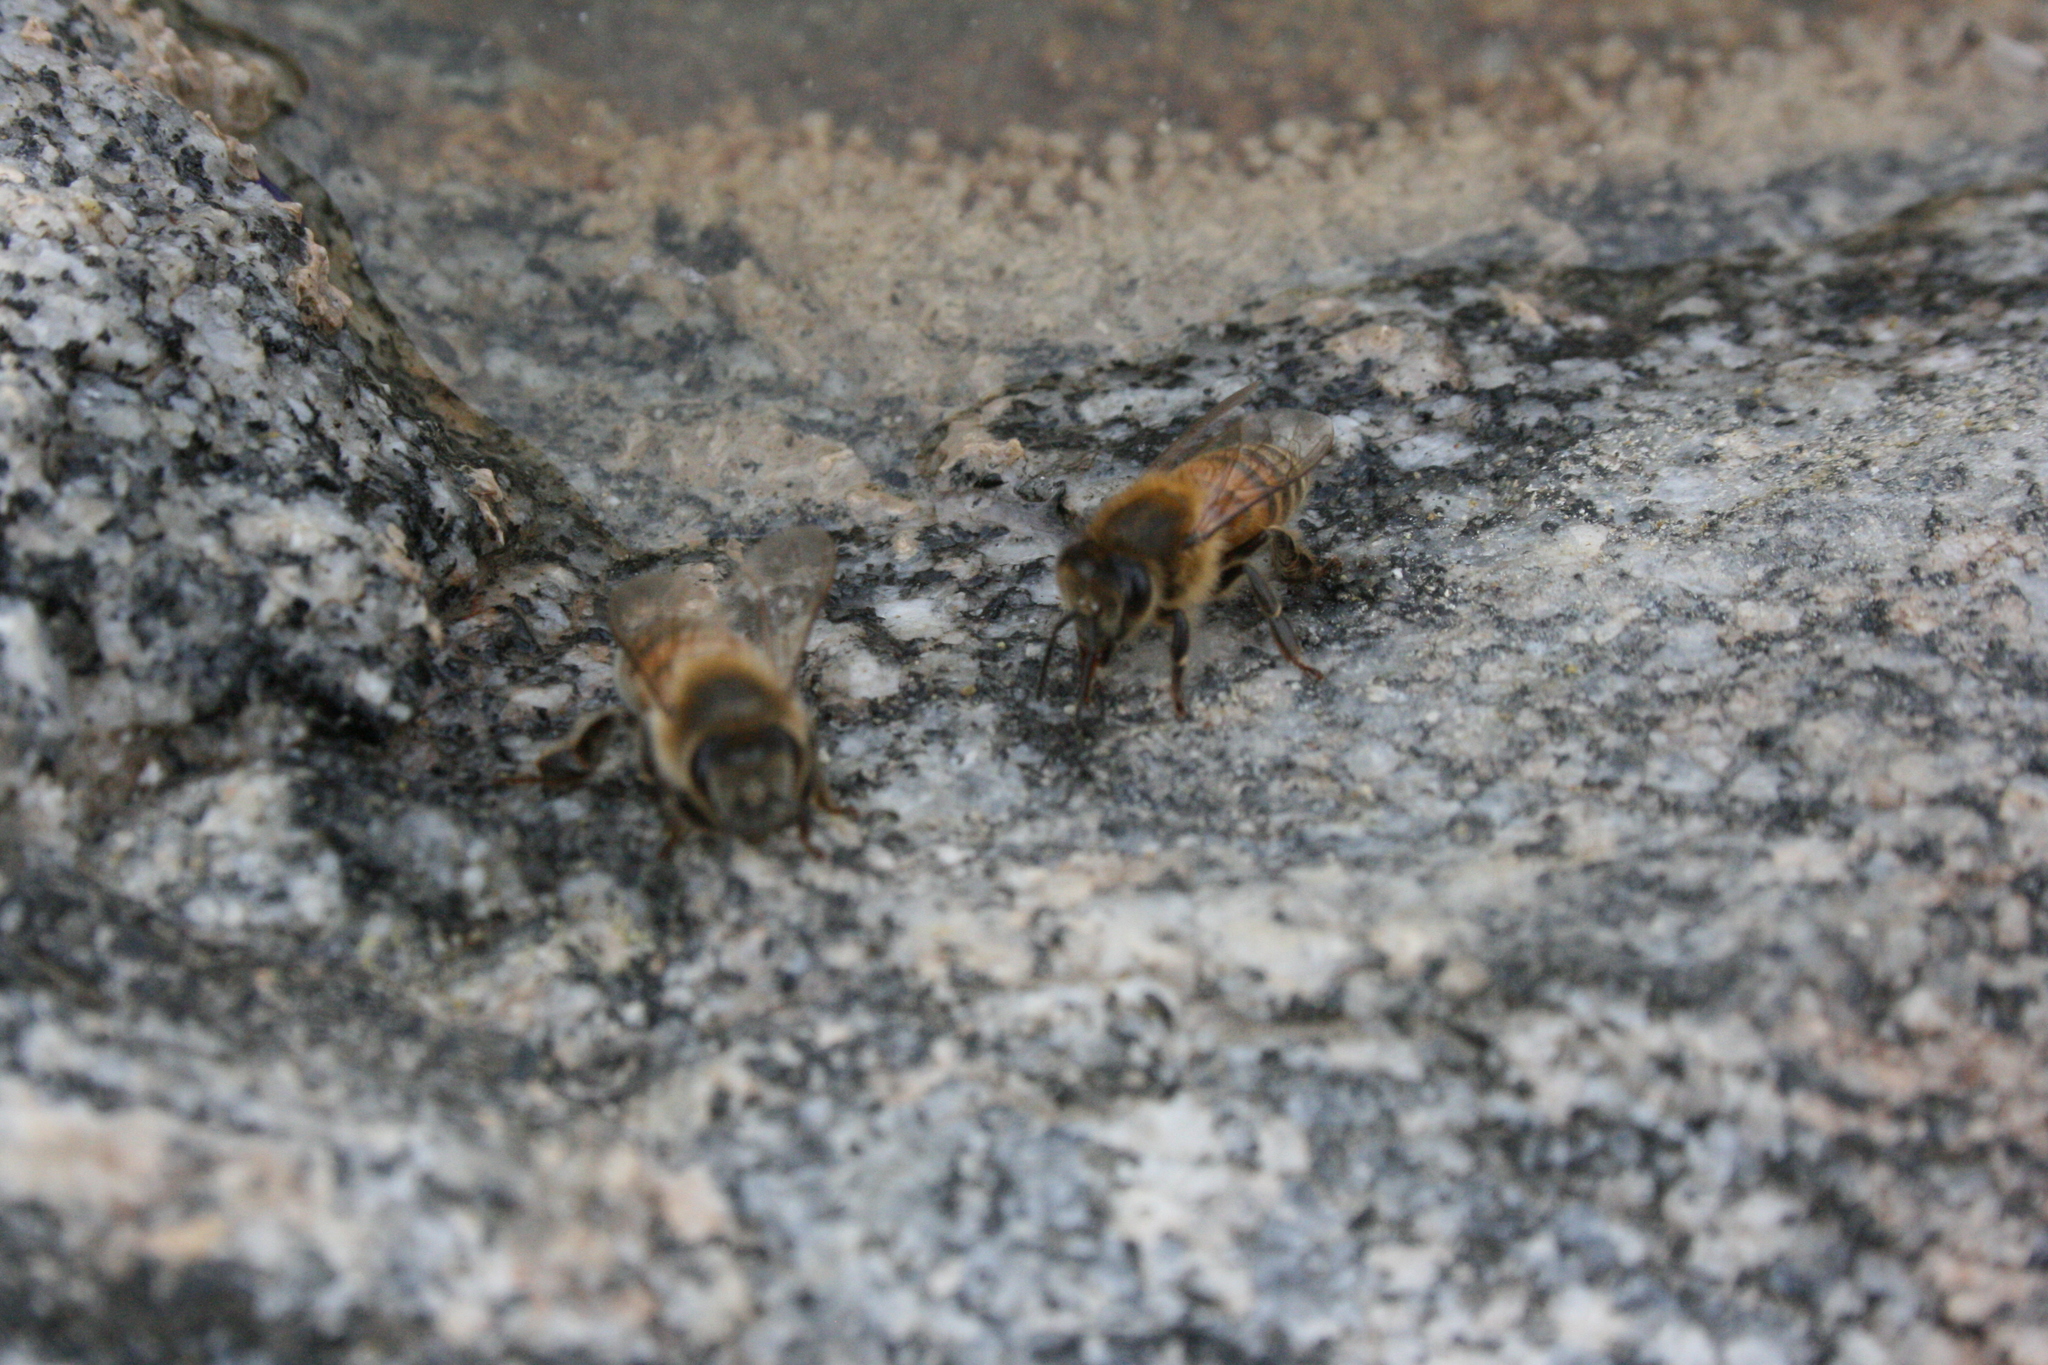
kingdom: Animalia
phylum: Arthropoda
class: Insecta
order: Hymenoptera
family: Apidae
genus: Apis
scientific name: Apis mellifera
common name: Honey bee
